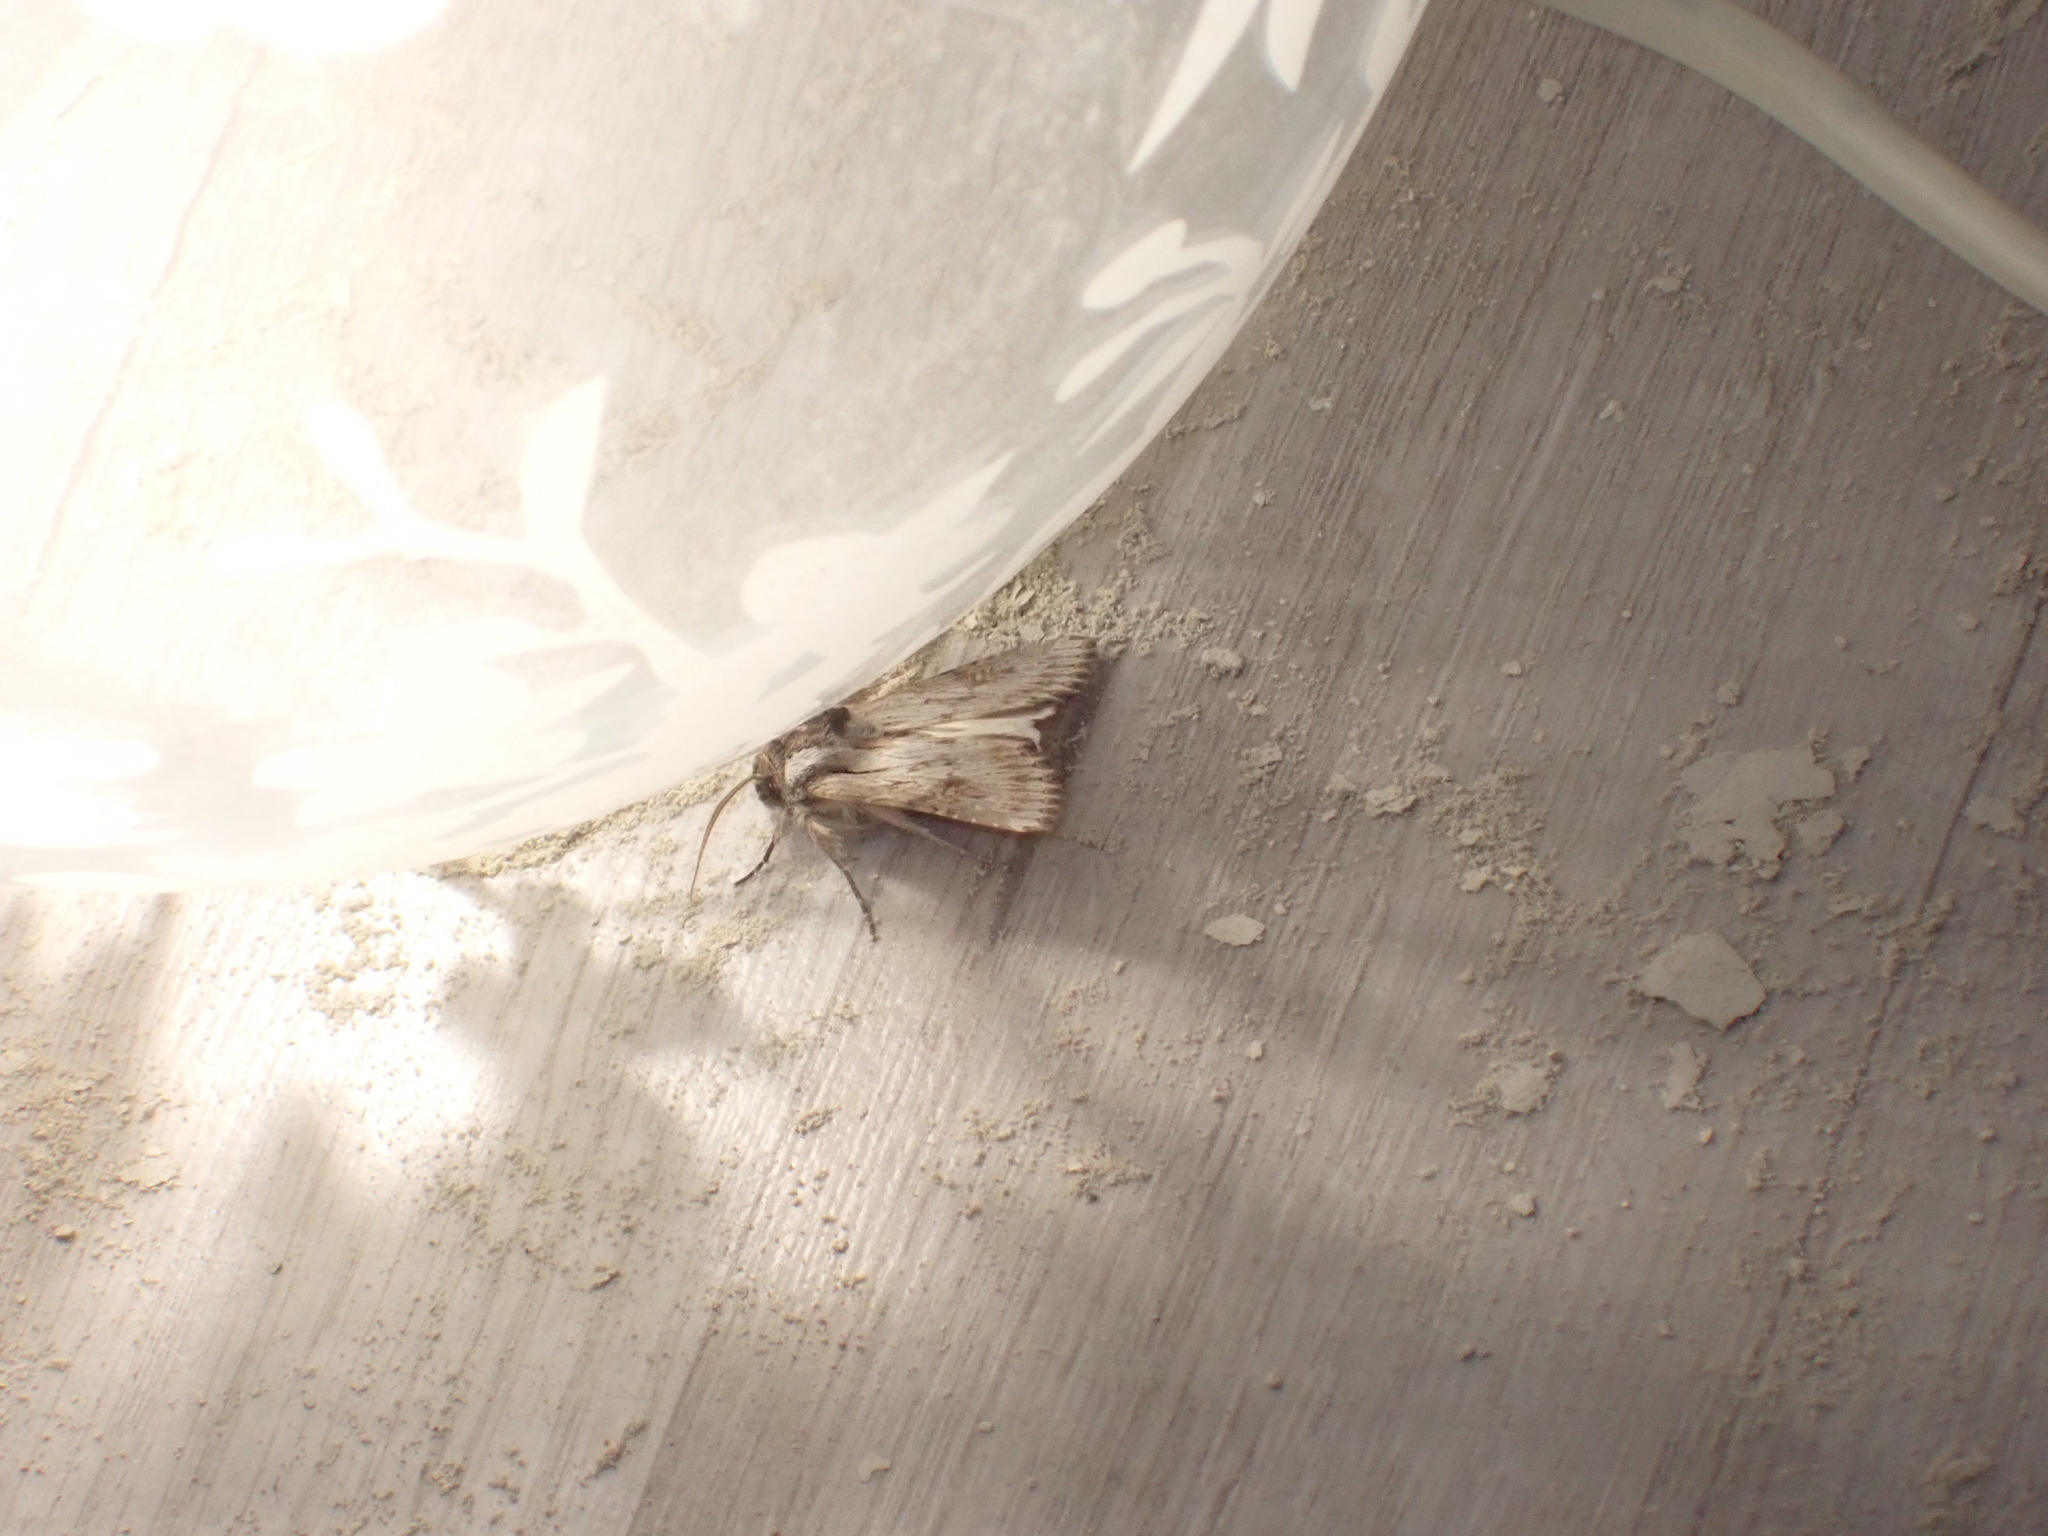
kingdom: Animalia
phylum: Arthropoda
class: Insecta
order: Lepidoptera
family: Noctuidae
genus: Aporophyla
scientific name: Aporophyla australis
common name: Feathered brindle
